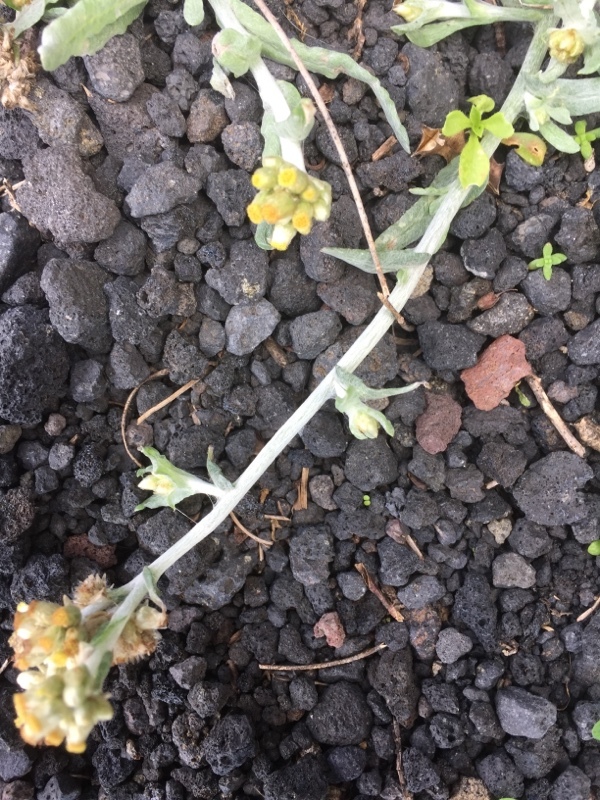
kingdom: Plantae
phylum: Tracheophyta
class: Magnoliopsida
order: Asterales
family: Asteraceae
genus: Helichrysum
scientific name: Helichrysum luteoalbum
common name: Daisy
